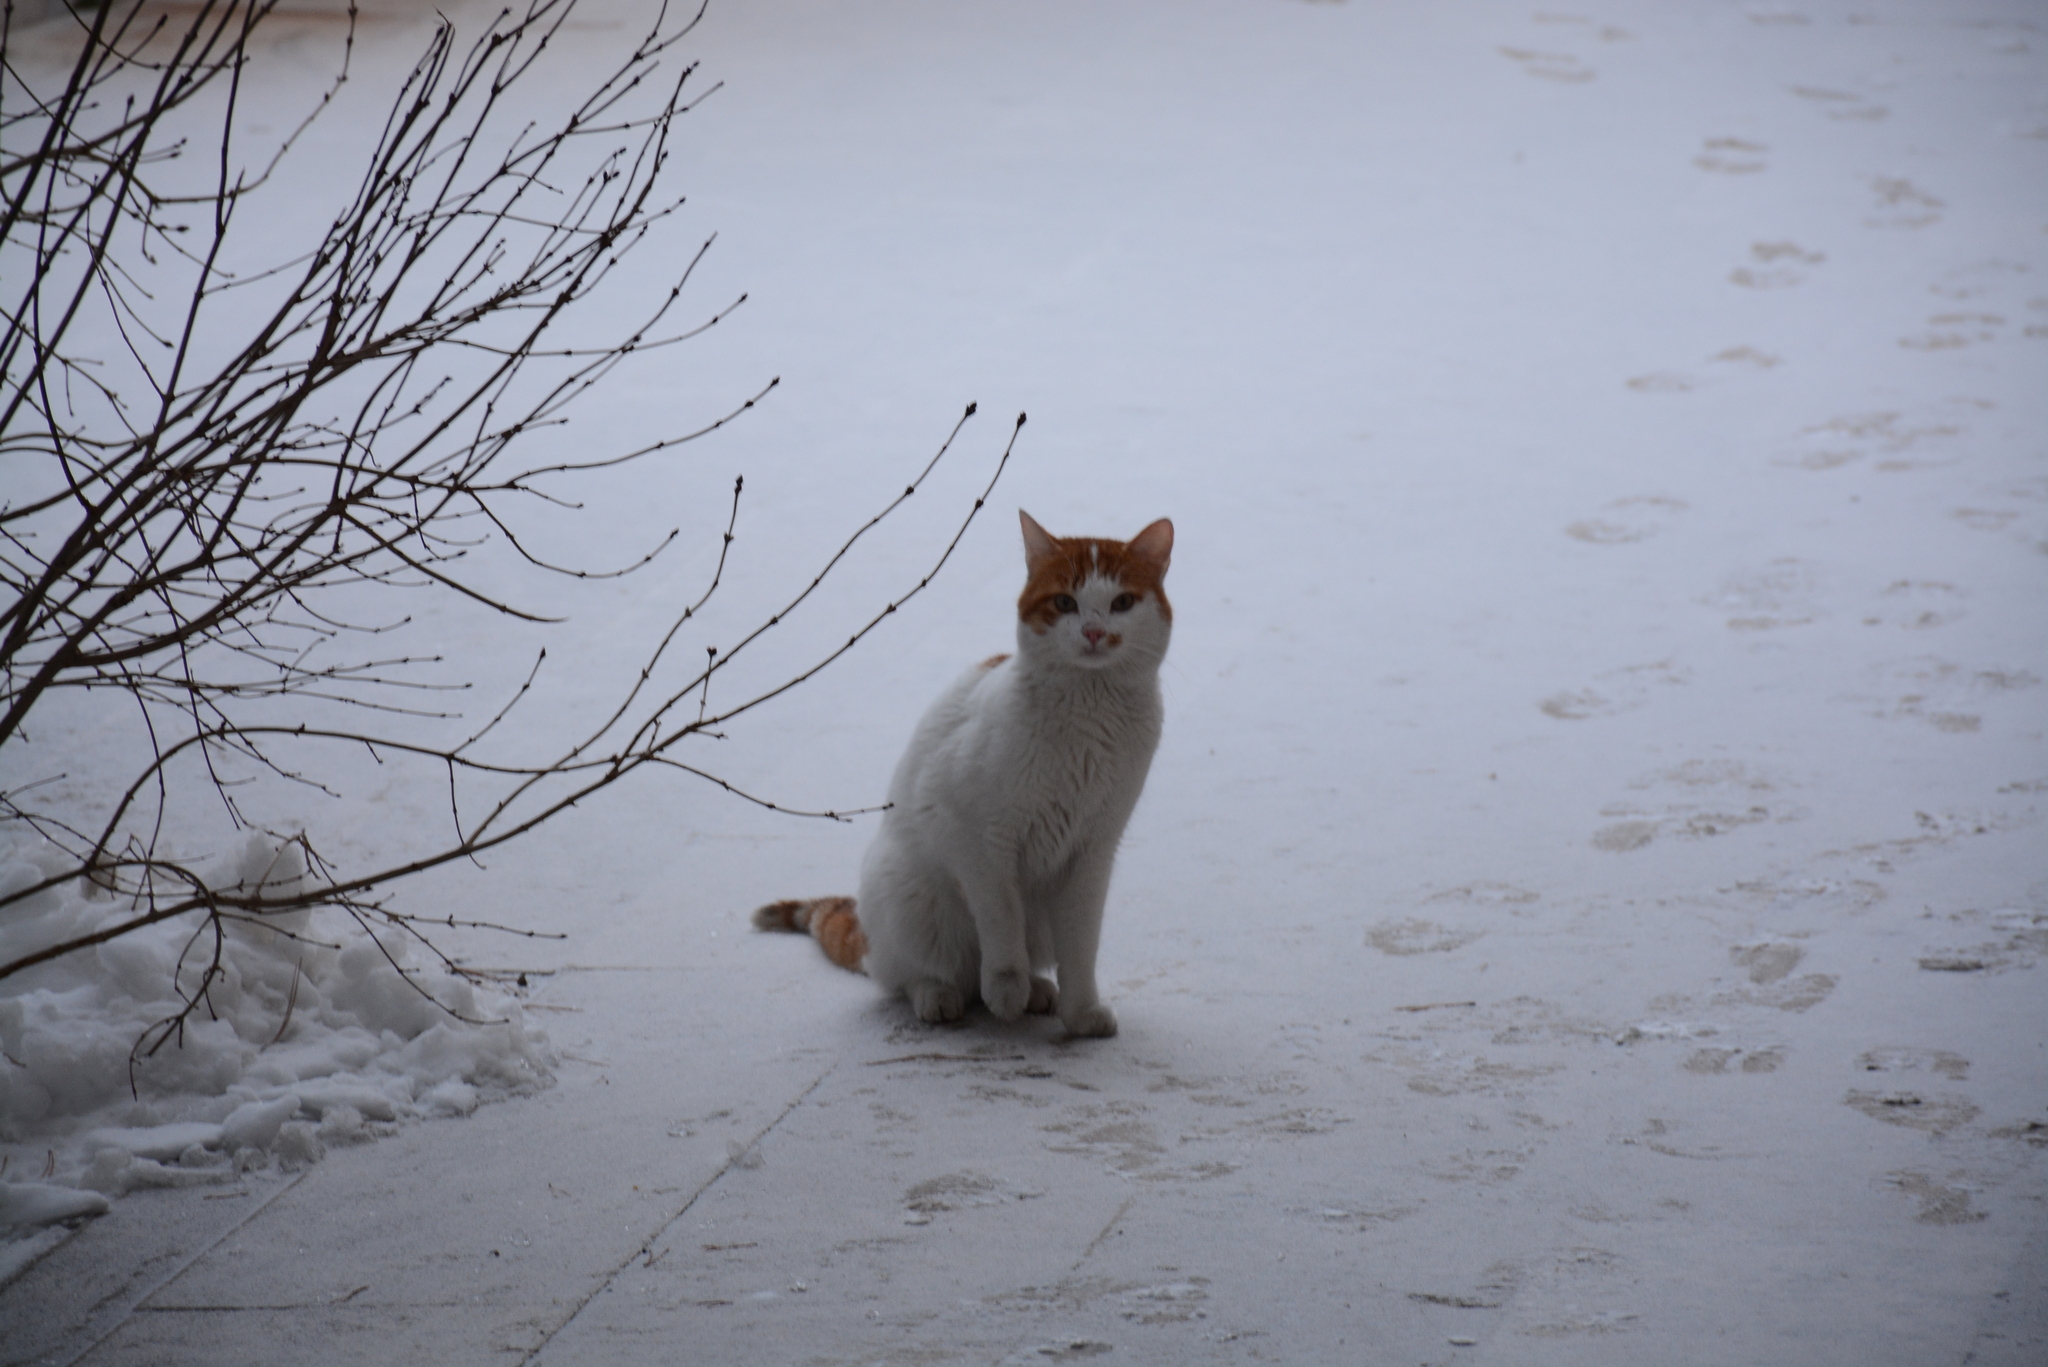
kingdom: Animalia
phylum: Chordata
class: Mammalia
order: Carnivora
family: Felidae
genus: Felis
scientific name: Felis catus
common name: Domestic cat
